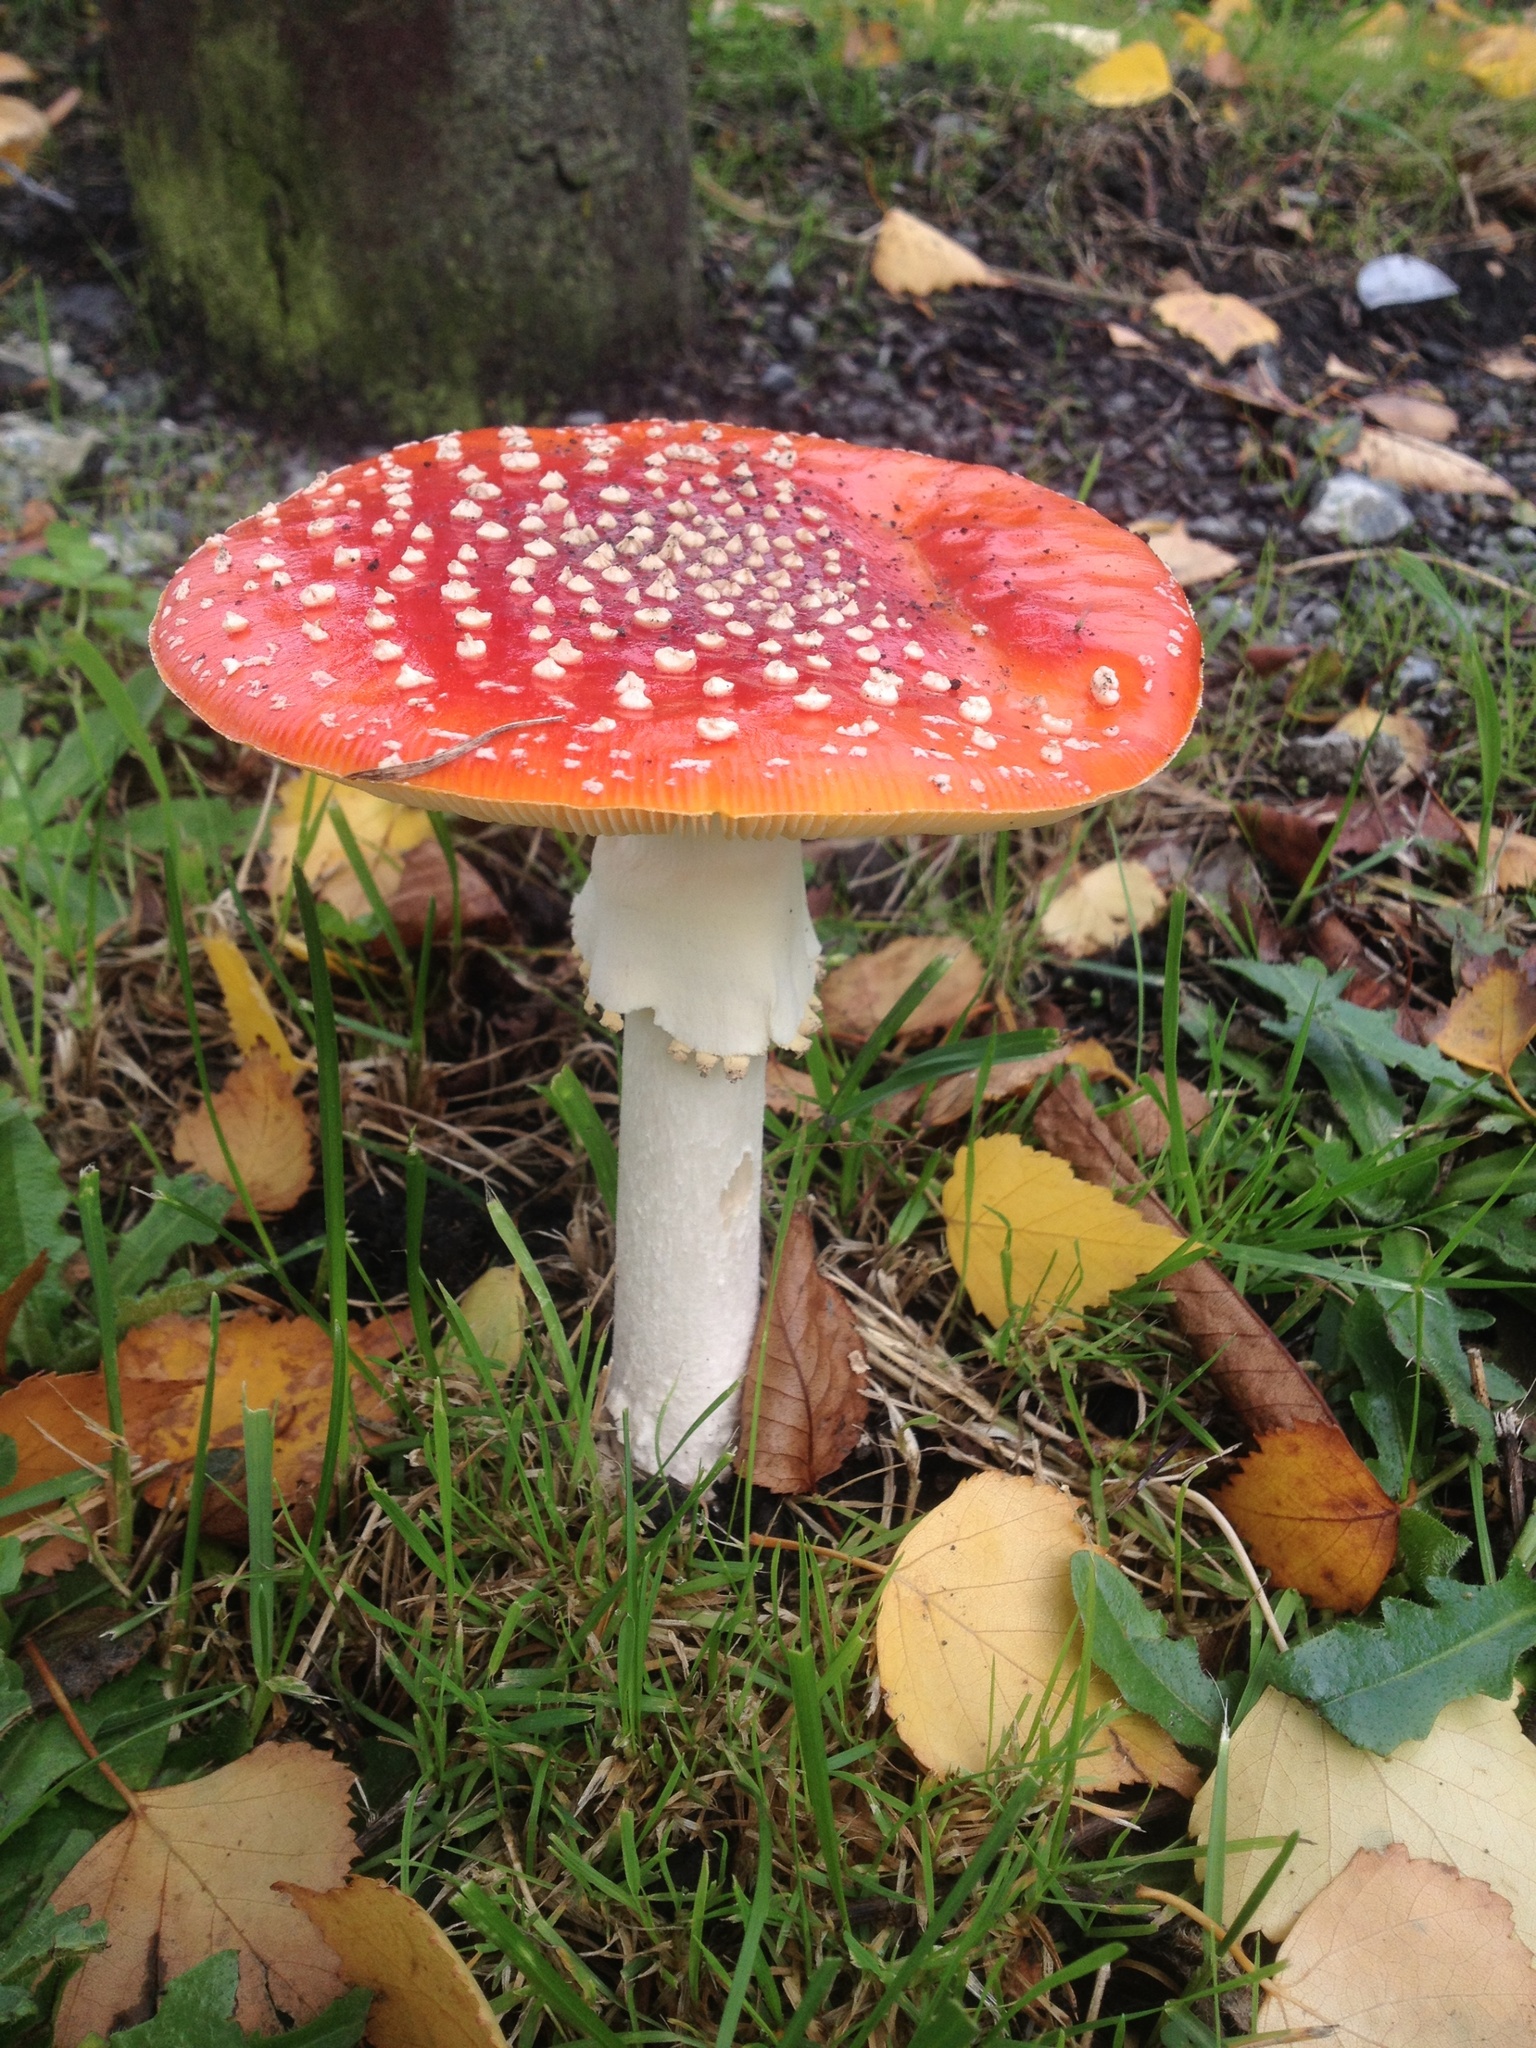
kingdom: Fungi
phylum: Basidiomycota
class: Agaricomycetes
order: Agaricales
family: Amanitaceae
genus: Amanita
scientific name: Amanita muscaria
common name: Fly agaric
